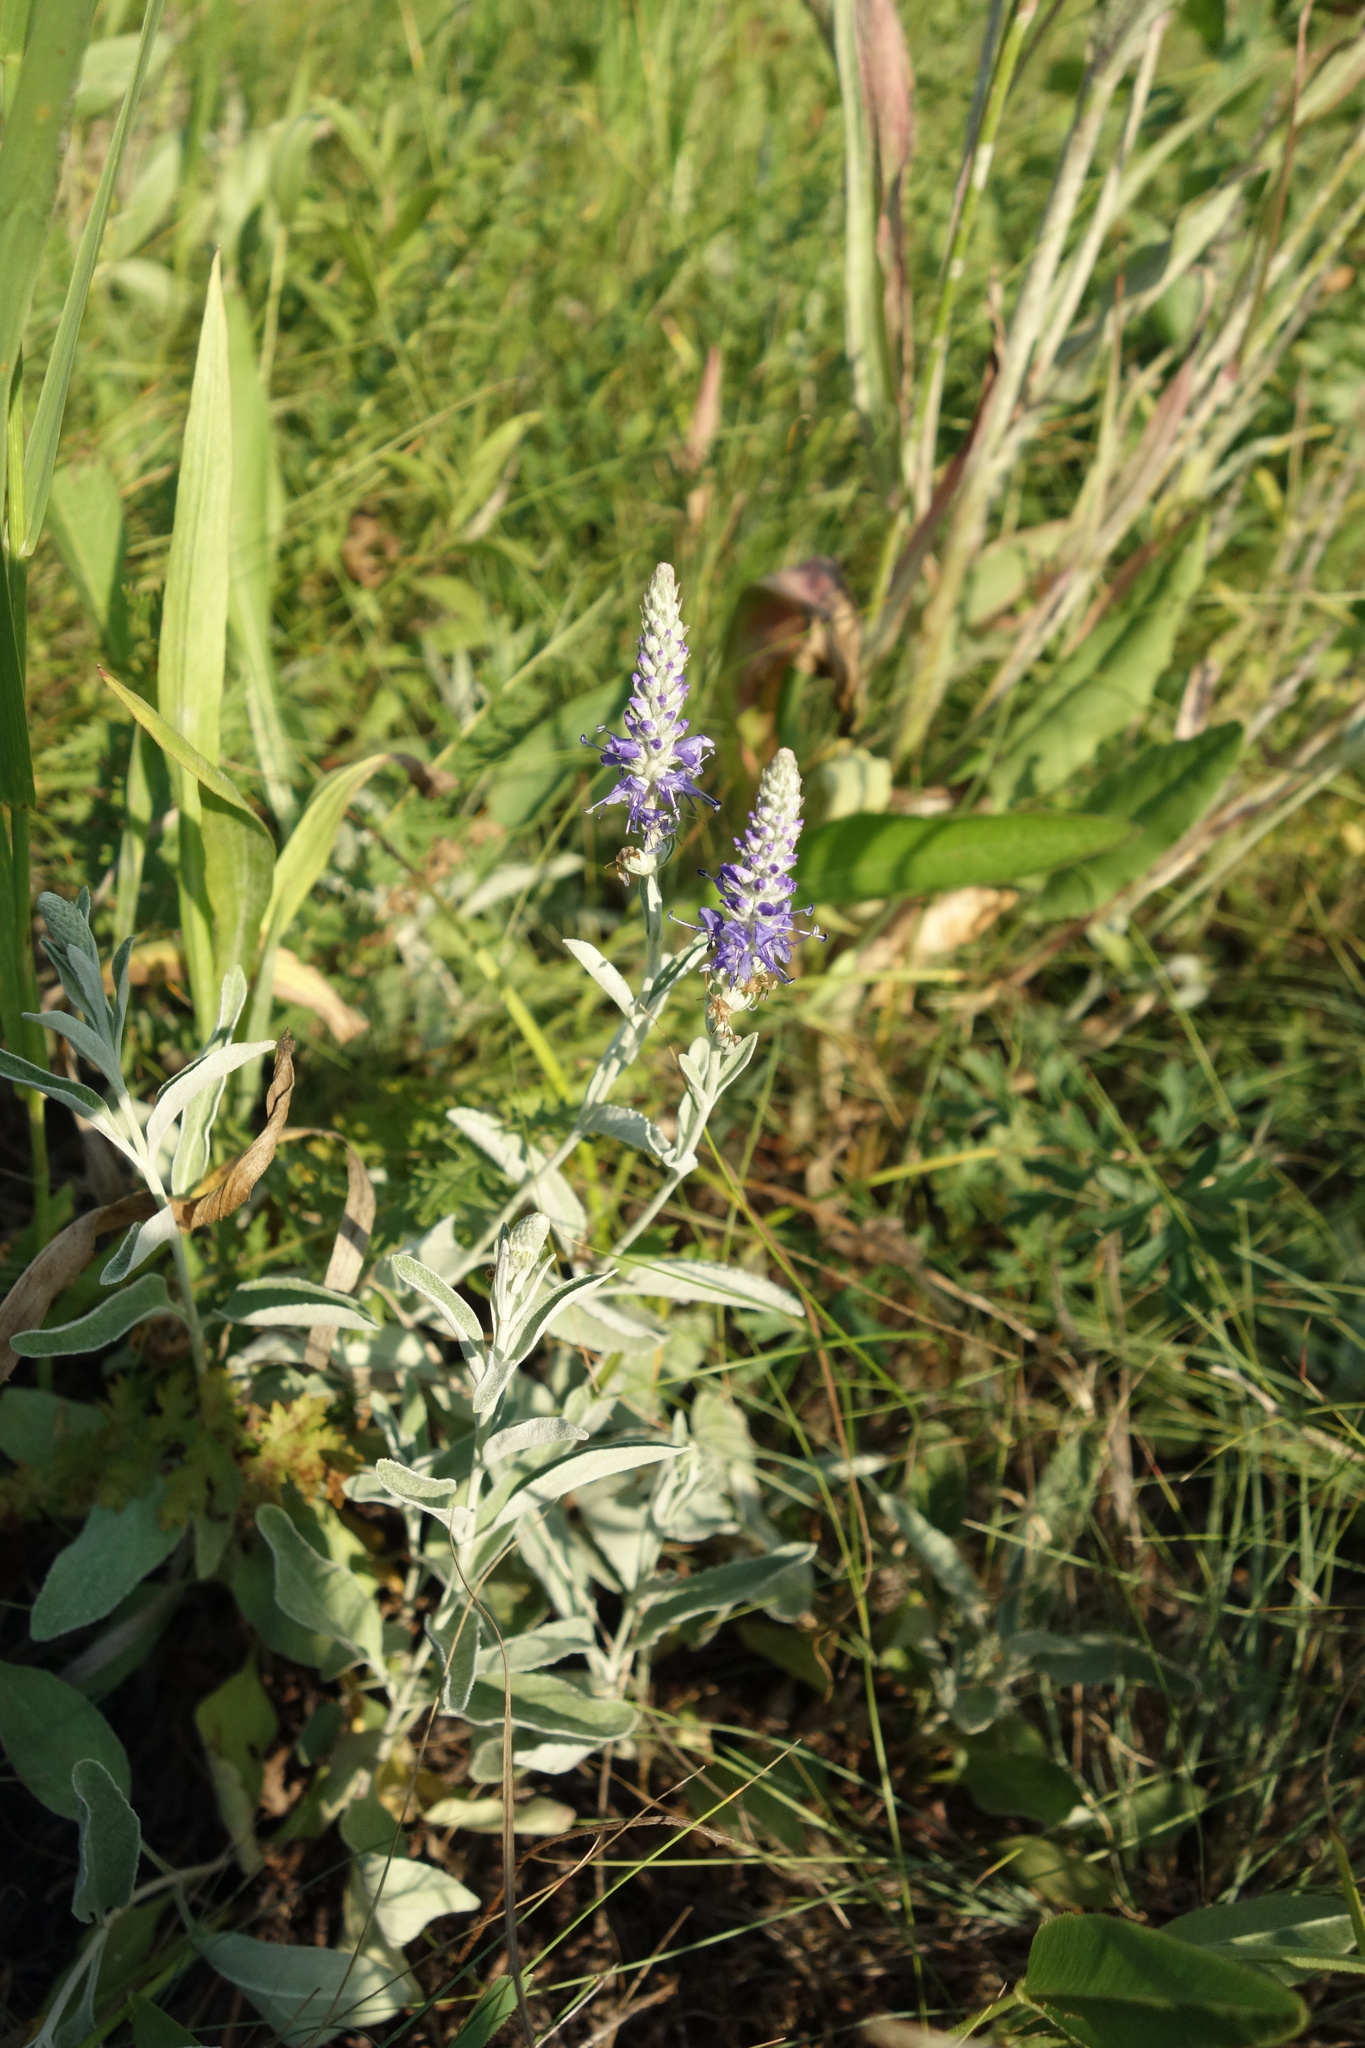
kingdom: Plantae
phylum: Tracheophyta
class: Magnoliopsida
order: Lamiales
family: Plantaginaceae
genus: Veronica
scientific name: Veronica incana
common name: Silver speedwell
